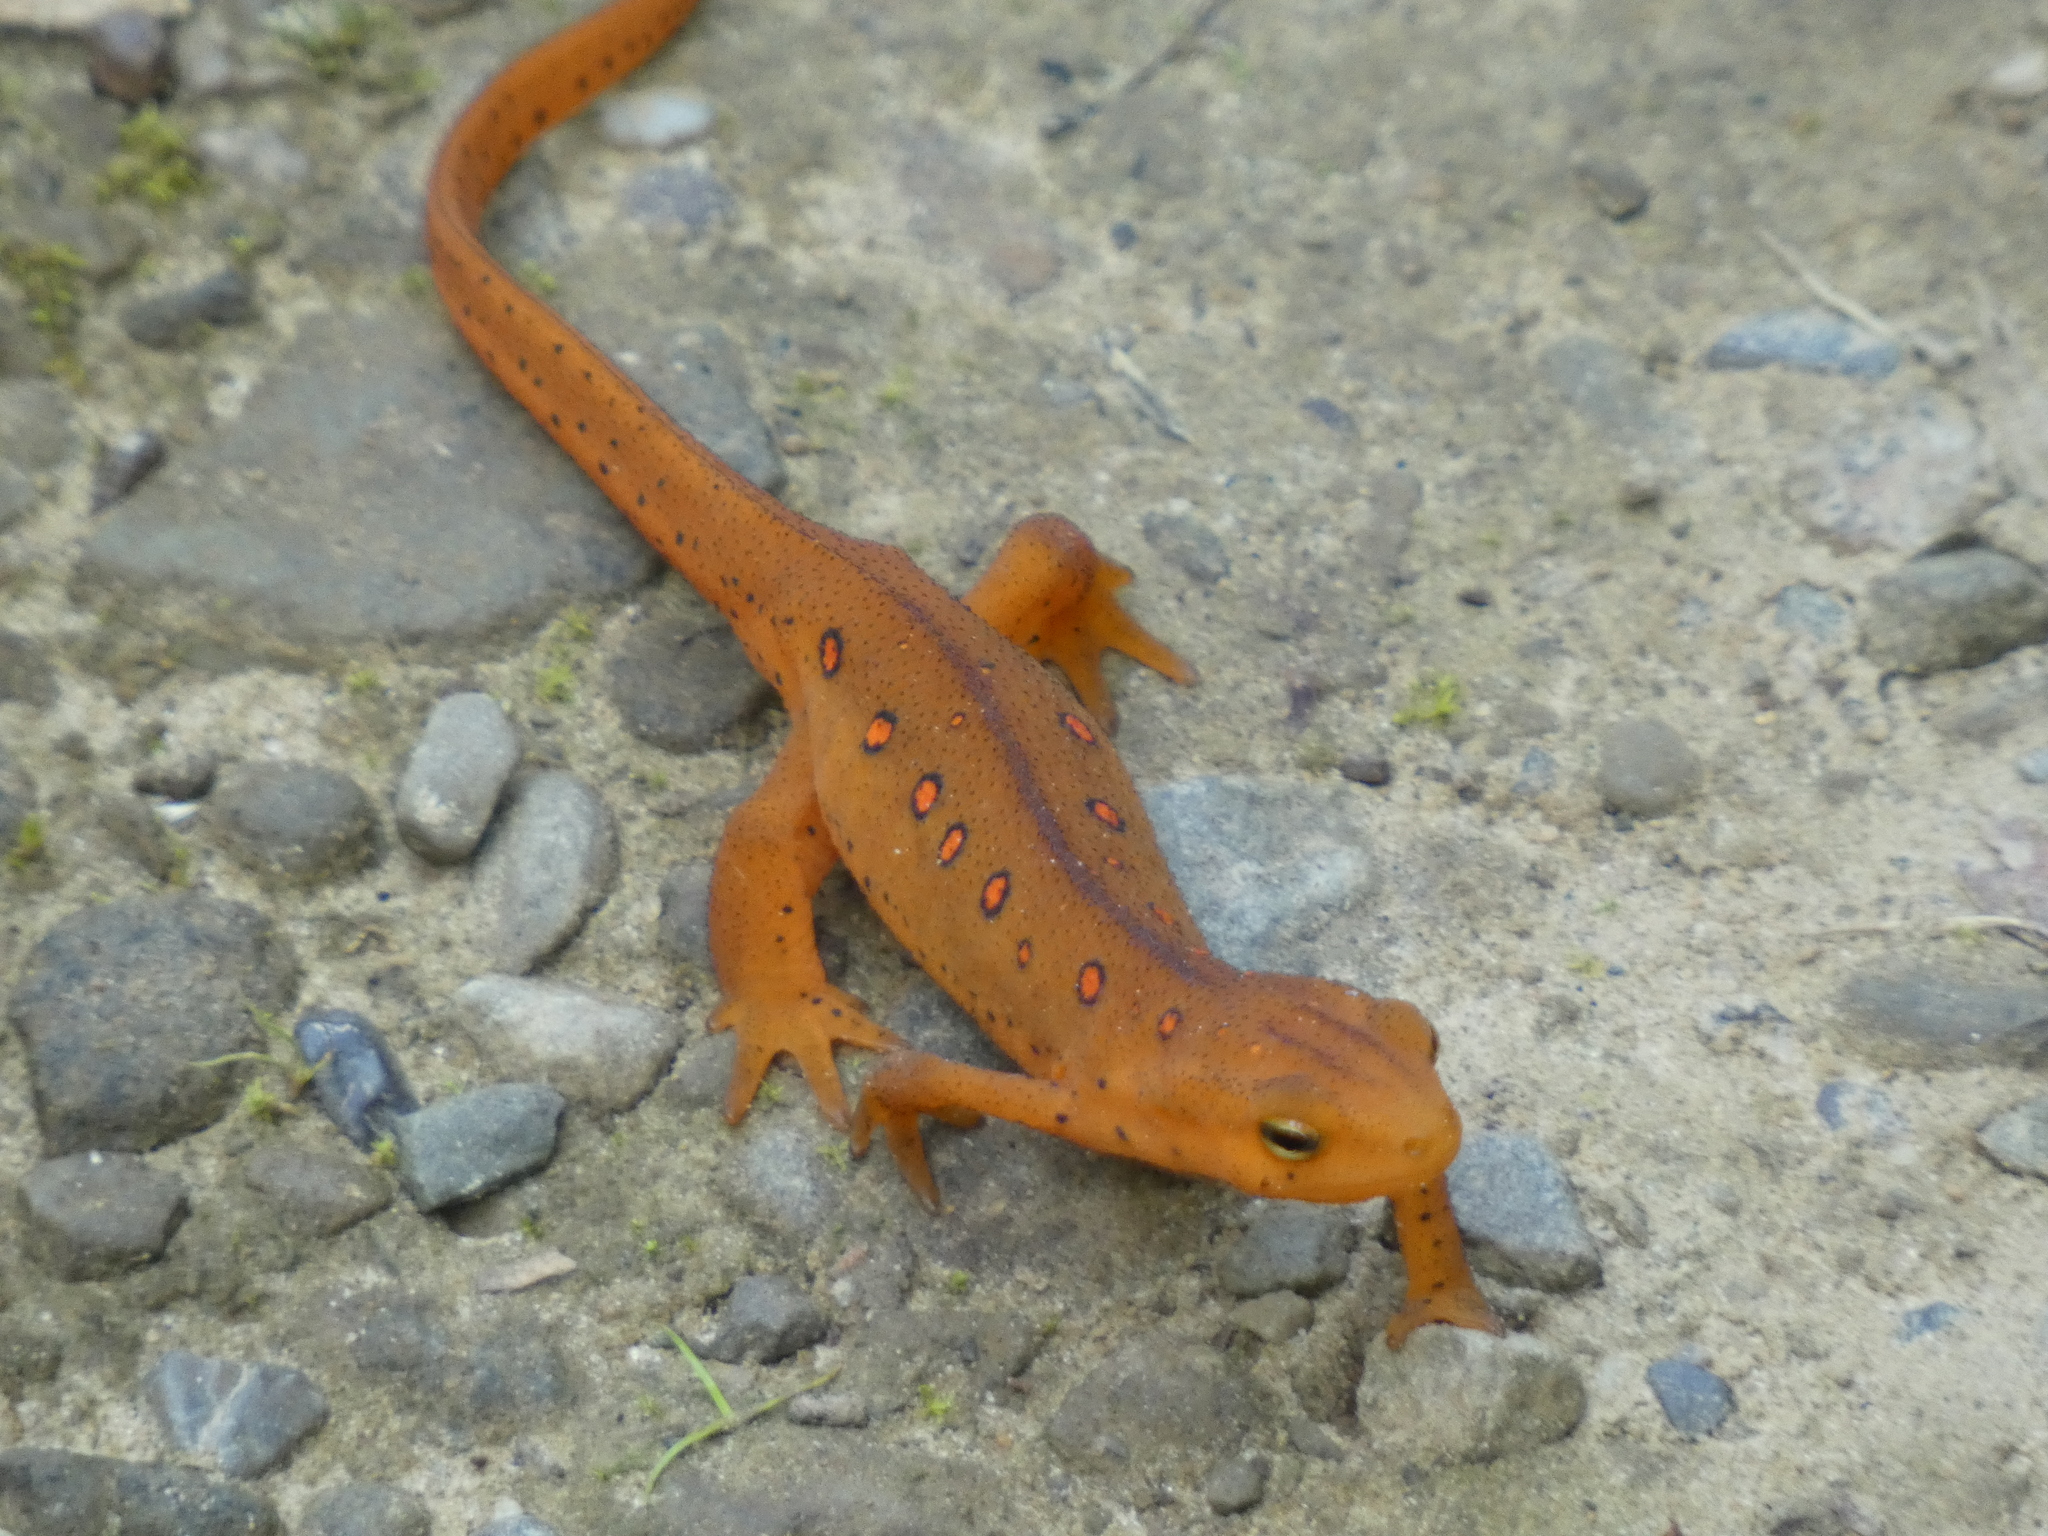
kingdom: Animalia
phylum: Chordata
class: Amphibia
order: Caudata
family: Salamandridae
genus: Notophthalmus
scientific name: Notophthalmus viridescens
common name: Eastern newt
